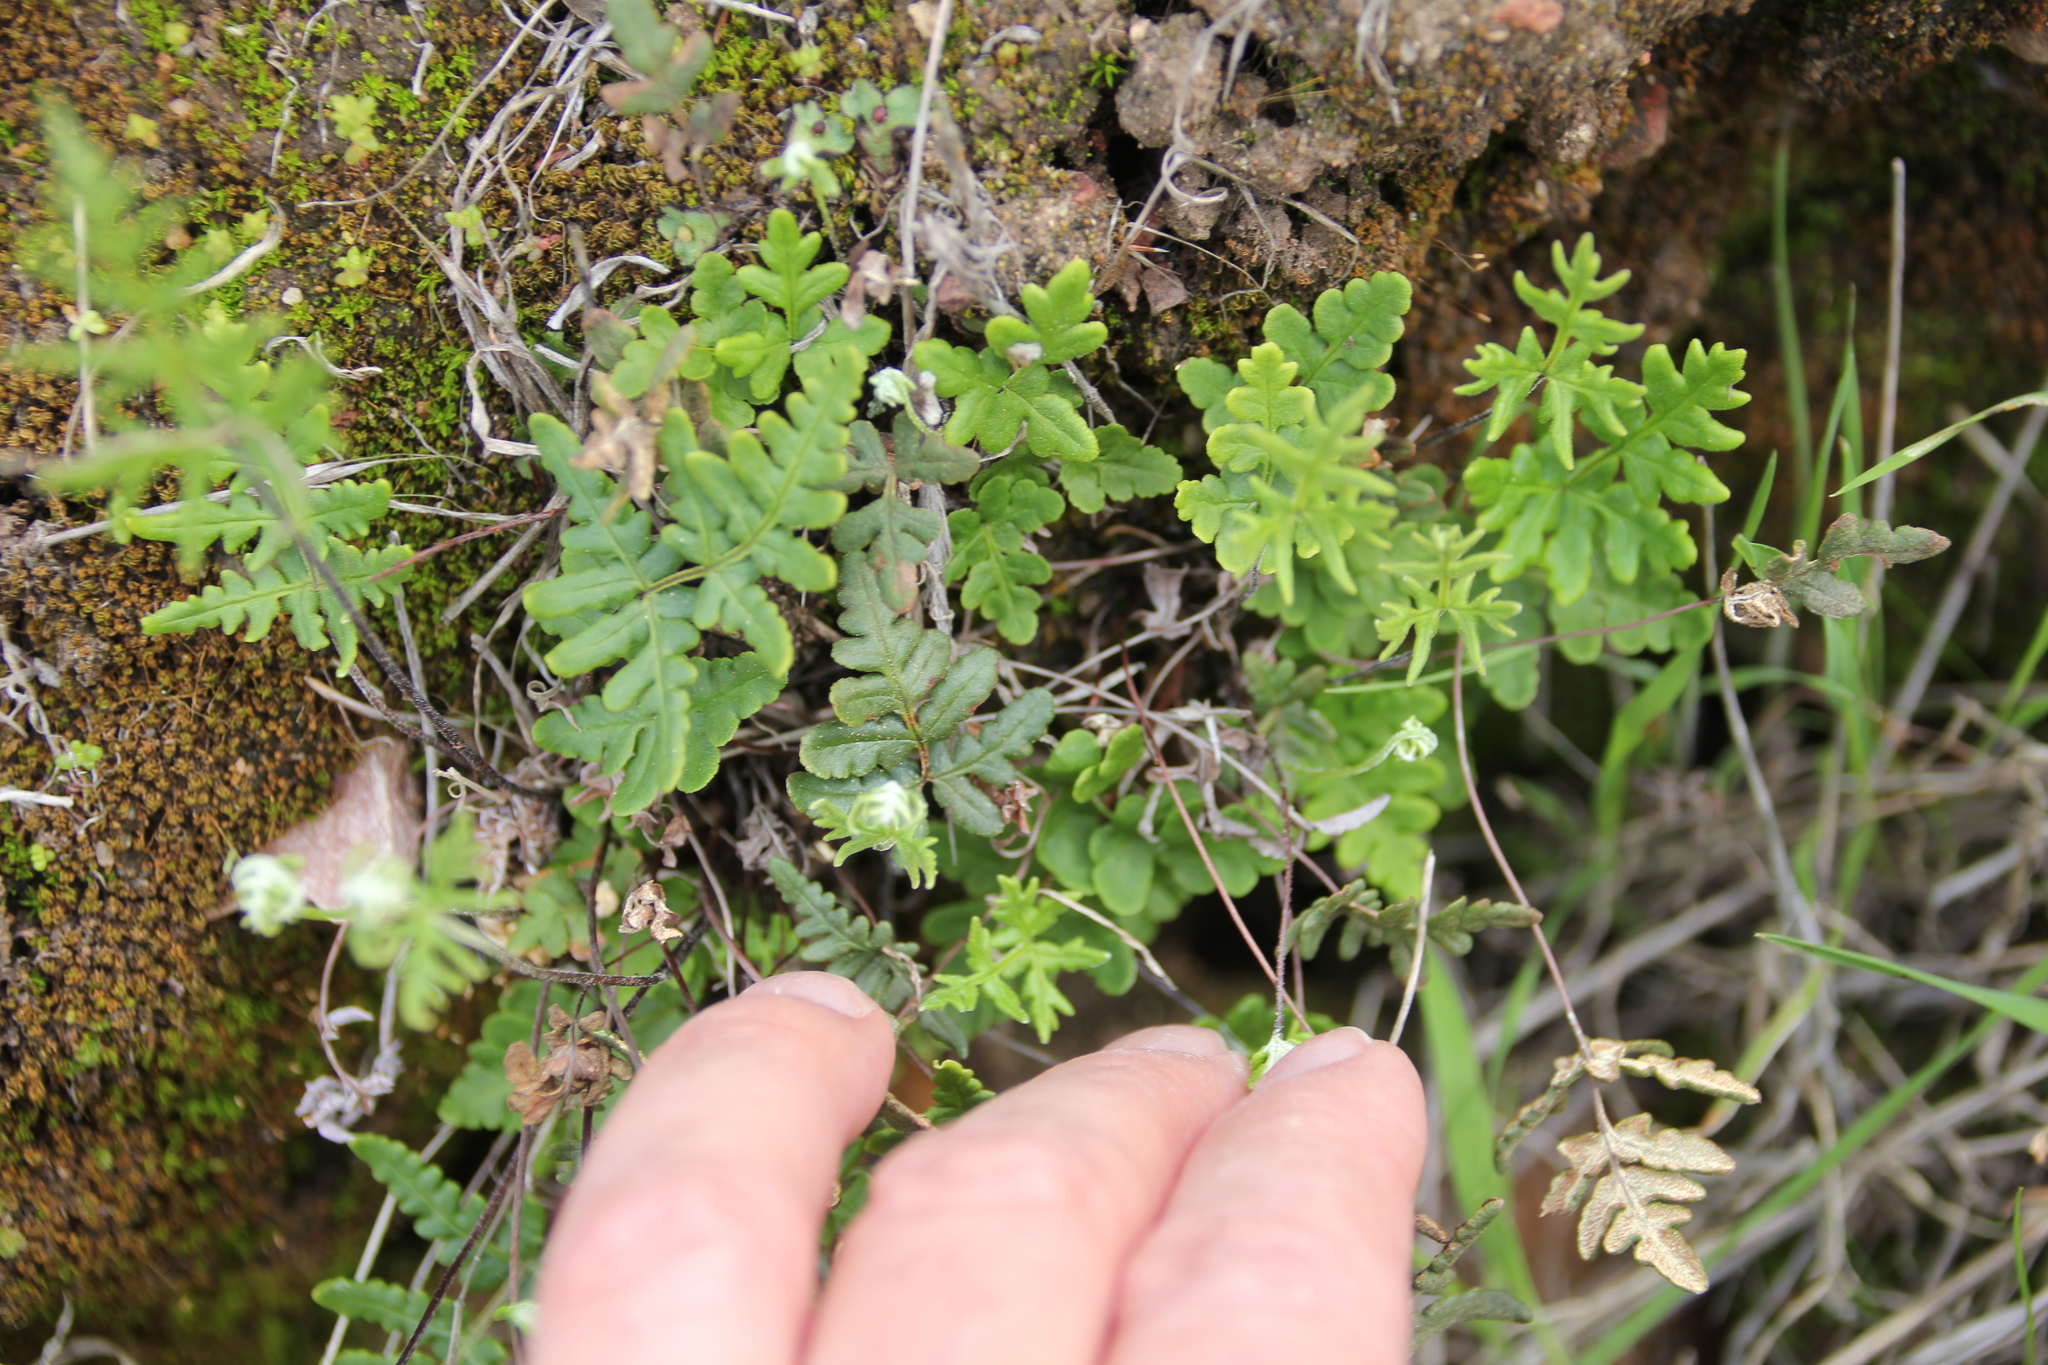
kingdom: Plantae
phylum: Tracheophyta
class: Polypodiopsida
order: Polypodiales
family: Pteridaceae
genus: Pentagramma
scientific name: Pentagramma glanduloviscida
